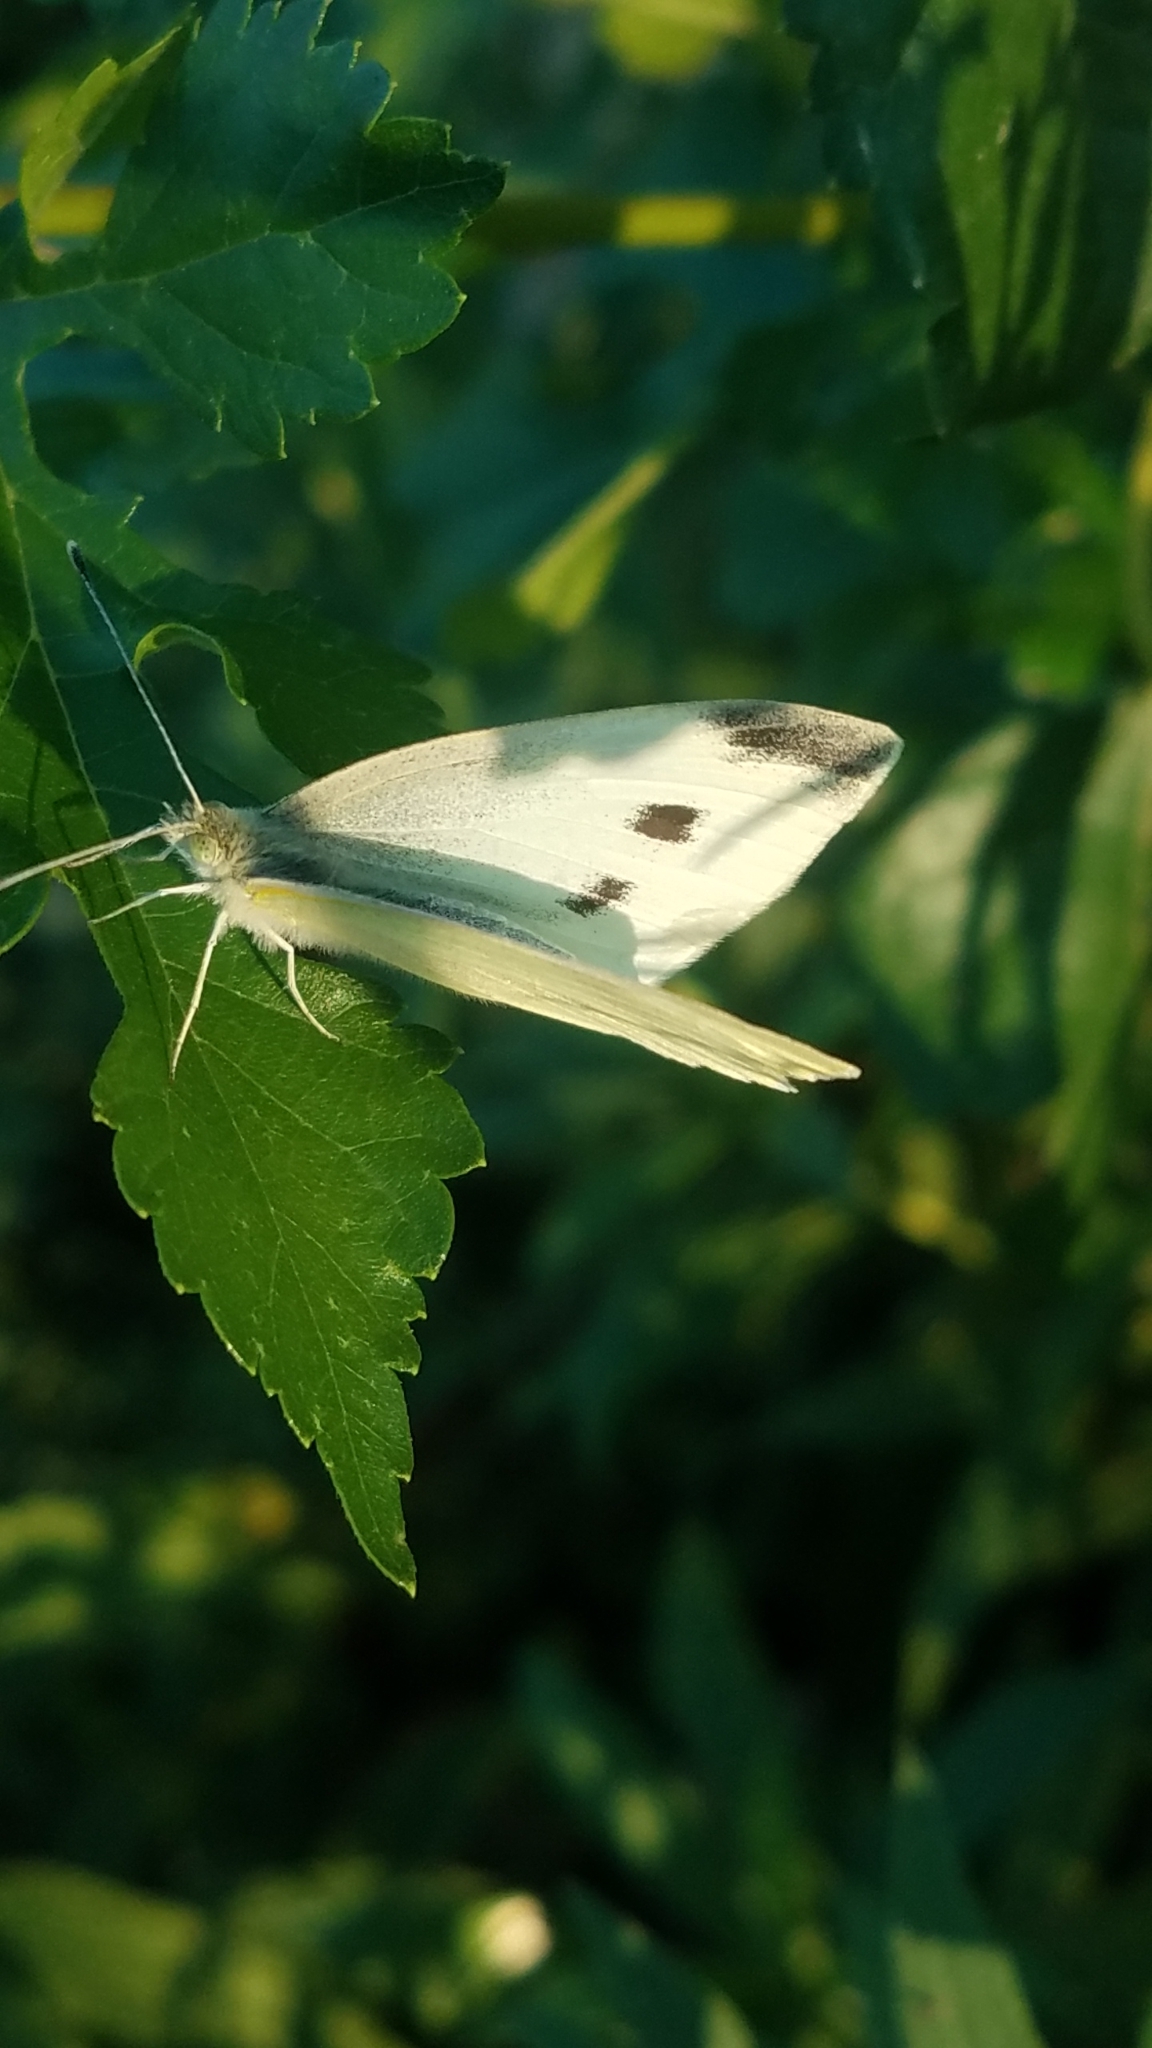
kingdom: Animalia
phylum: Arthropoda
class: Insecta
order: Lepidoptera
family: Pieridae
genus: Pieris
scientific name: Pieris rapae
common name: Small white
